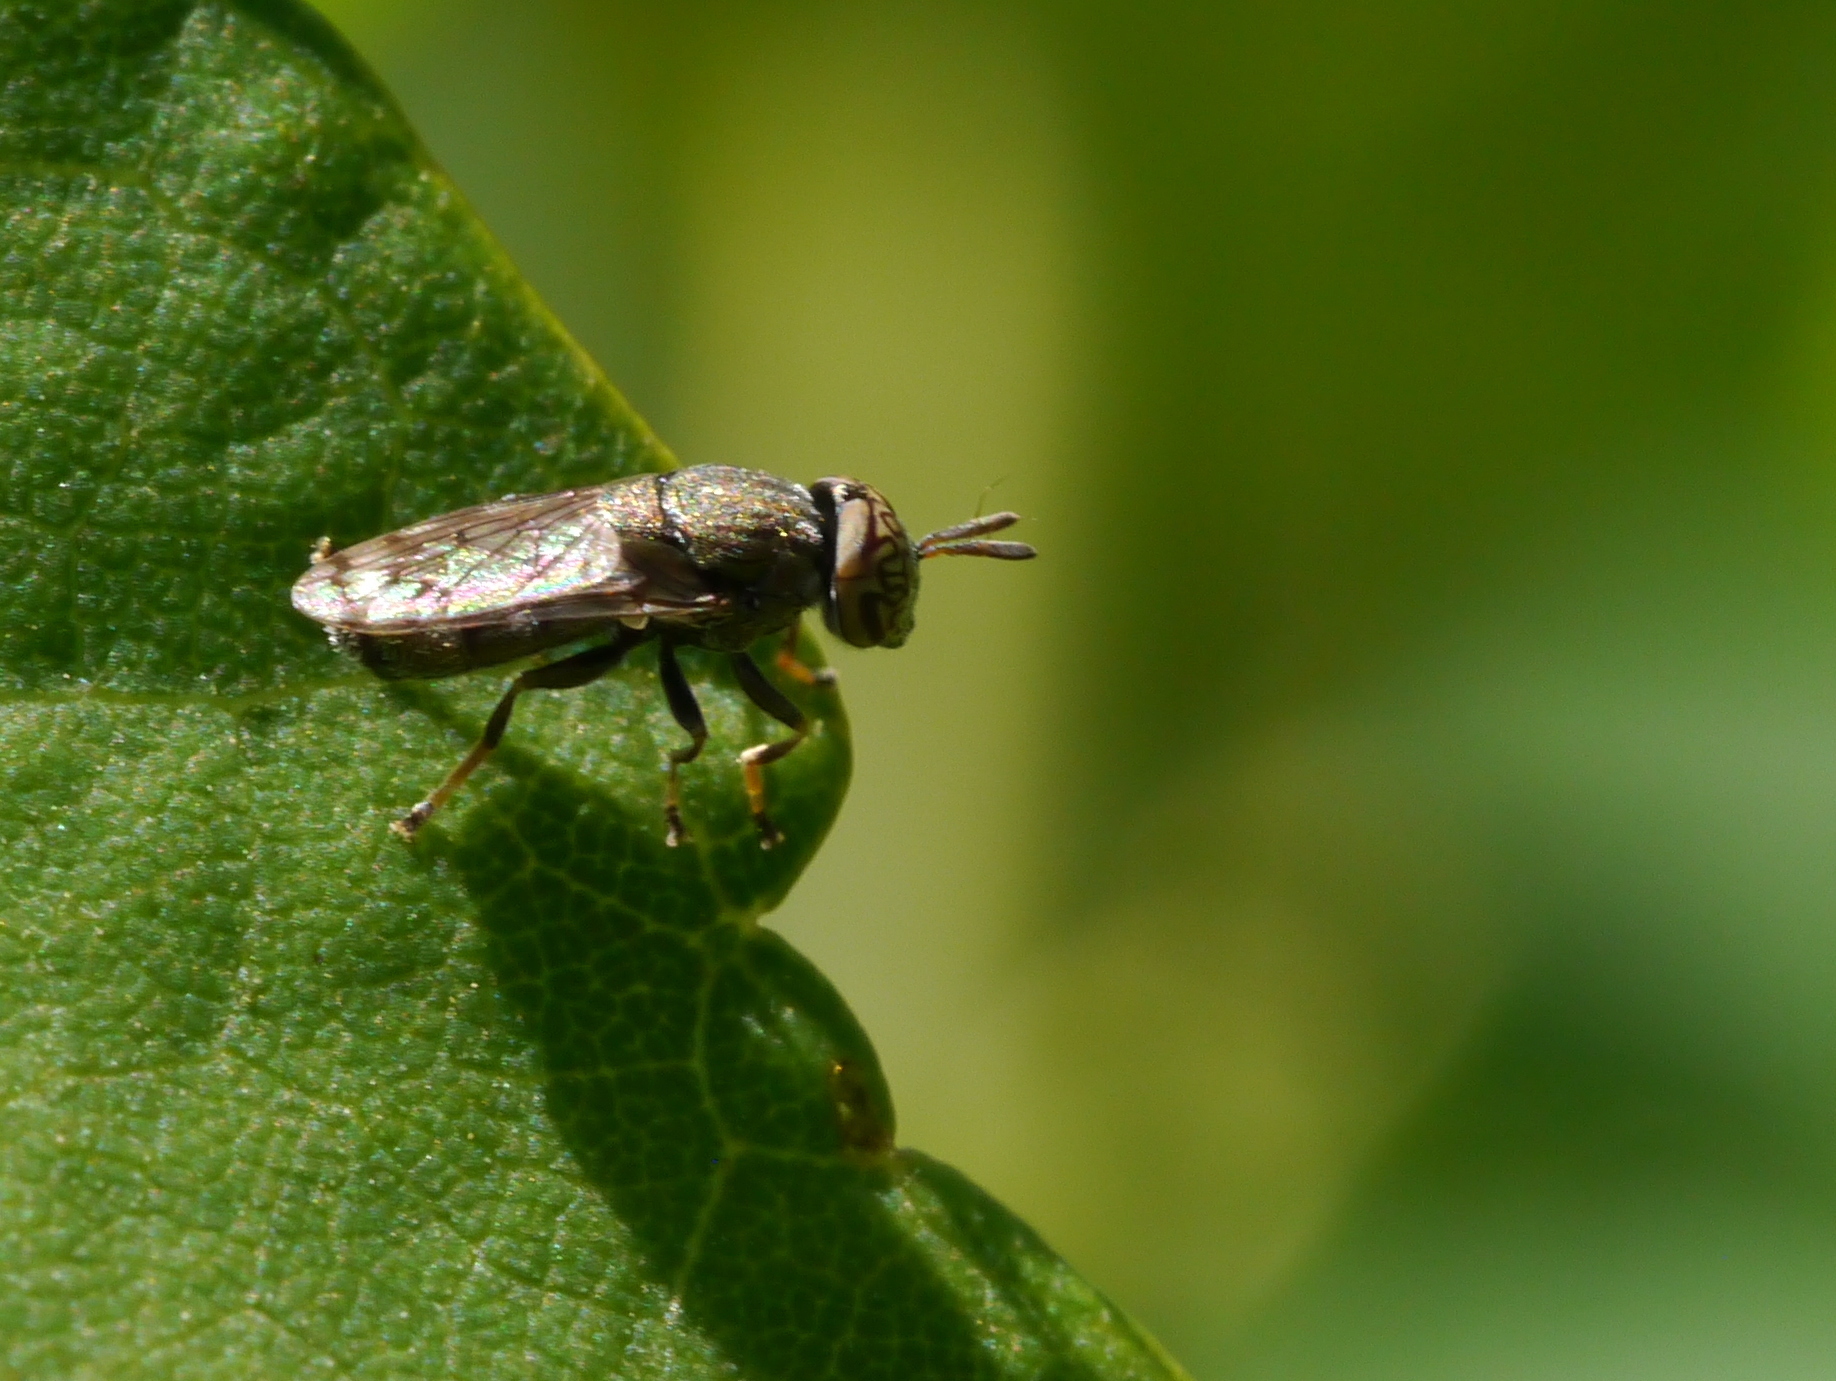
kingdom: Animalia
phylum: Arthropoda
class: Insecta
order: Diptera
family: Syrphidae
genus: Orthonevra
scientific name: Orthonevra nitida
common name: Wavy mucksucker
